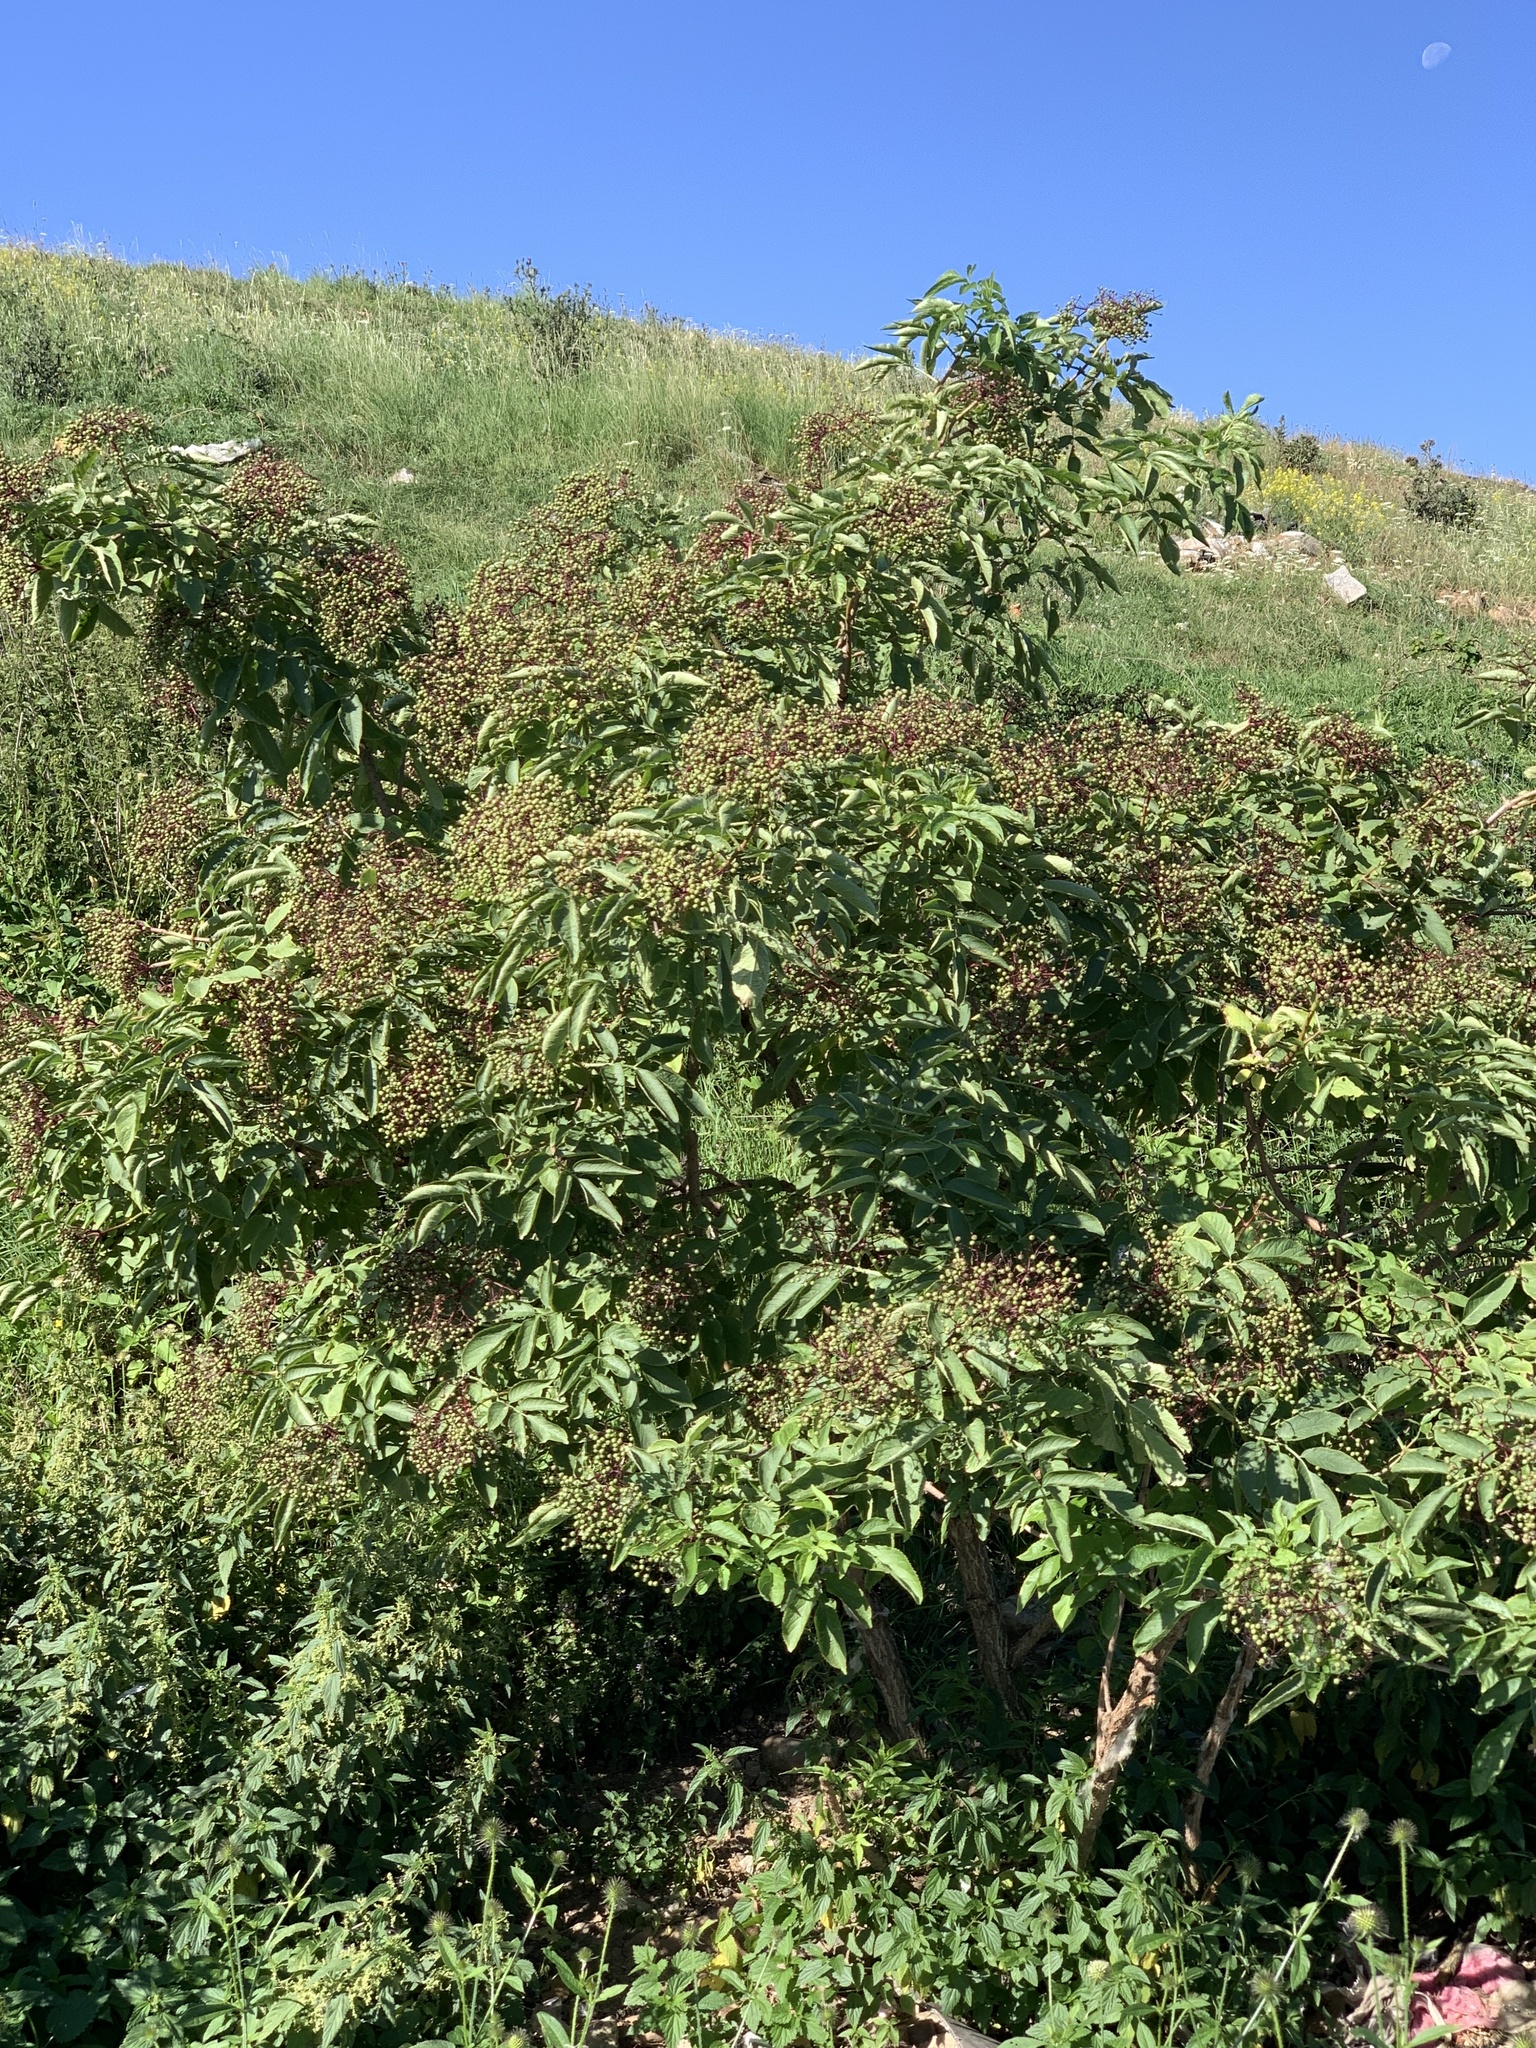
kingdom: Plantae
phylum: Tracheophyta
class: Magnoliopsida
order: Dipsacales
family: Viburnaceae
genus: Sambucus
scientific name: Sambucus nigra
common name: Elder
